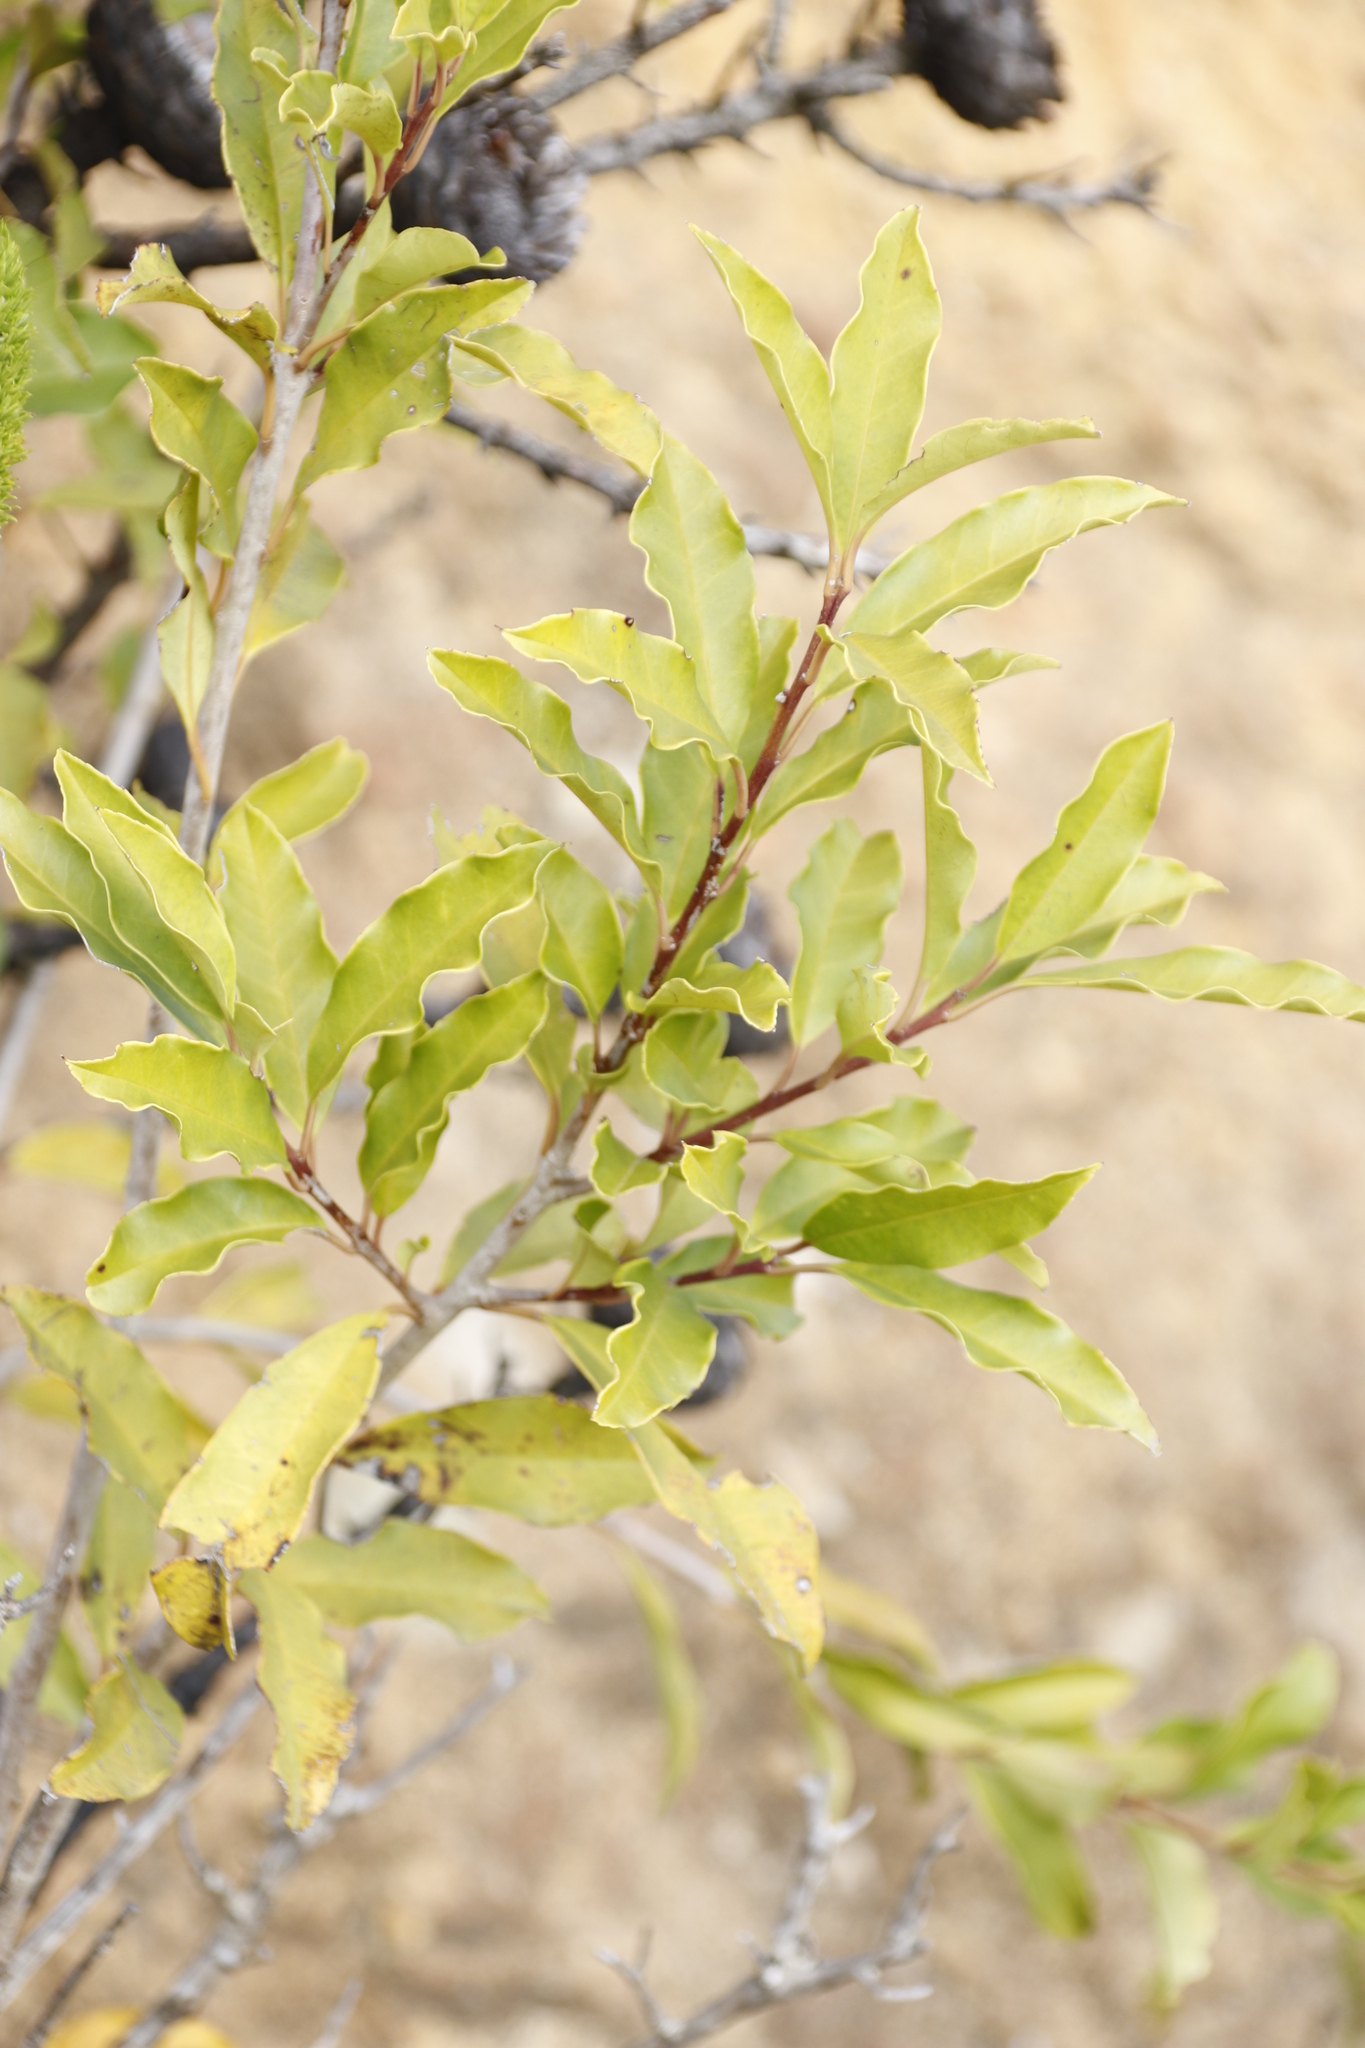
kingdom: Plantae
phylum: Tracheophyta
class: Magnoliopsida
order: Apiales
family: Pittosporaceae
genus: Pittosporum
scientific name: Pittosporum undulatum
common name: Australian cheesewood
